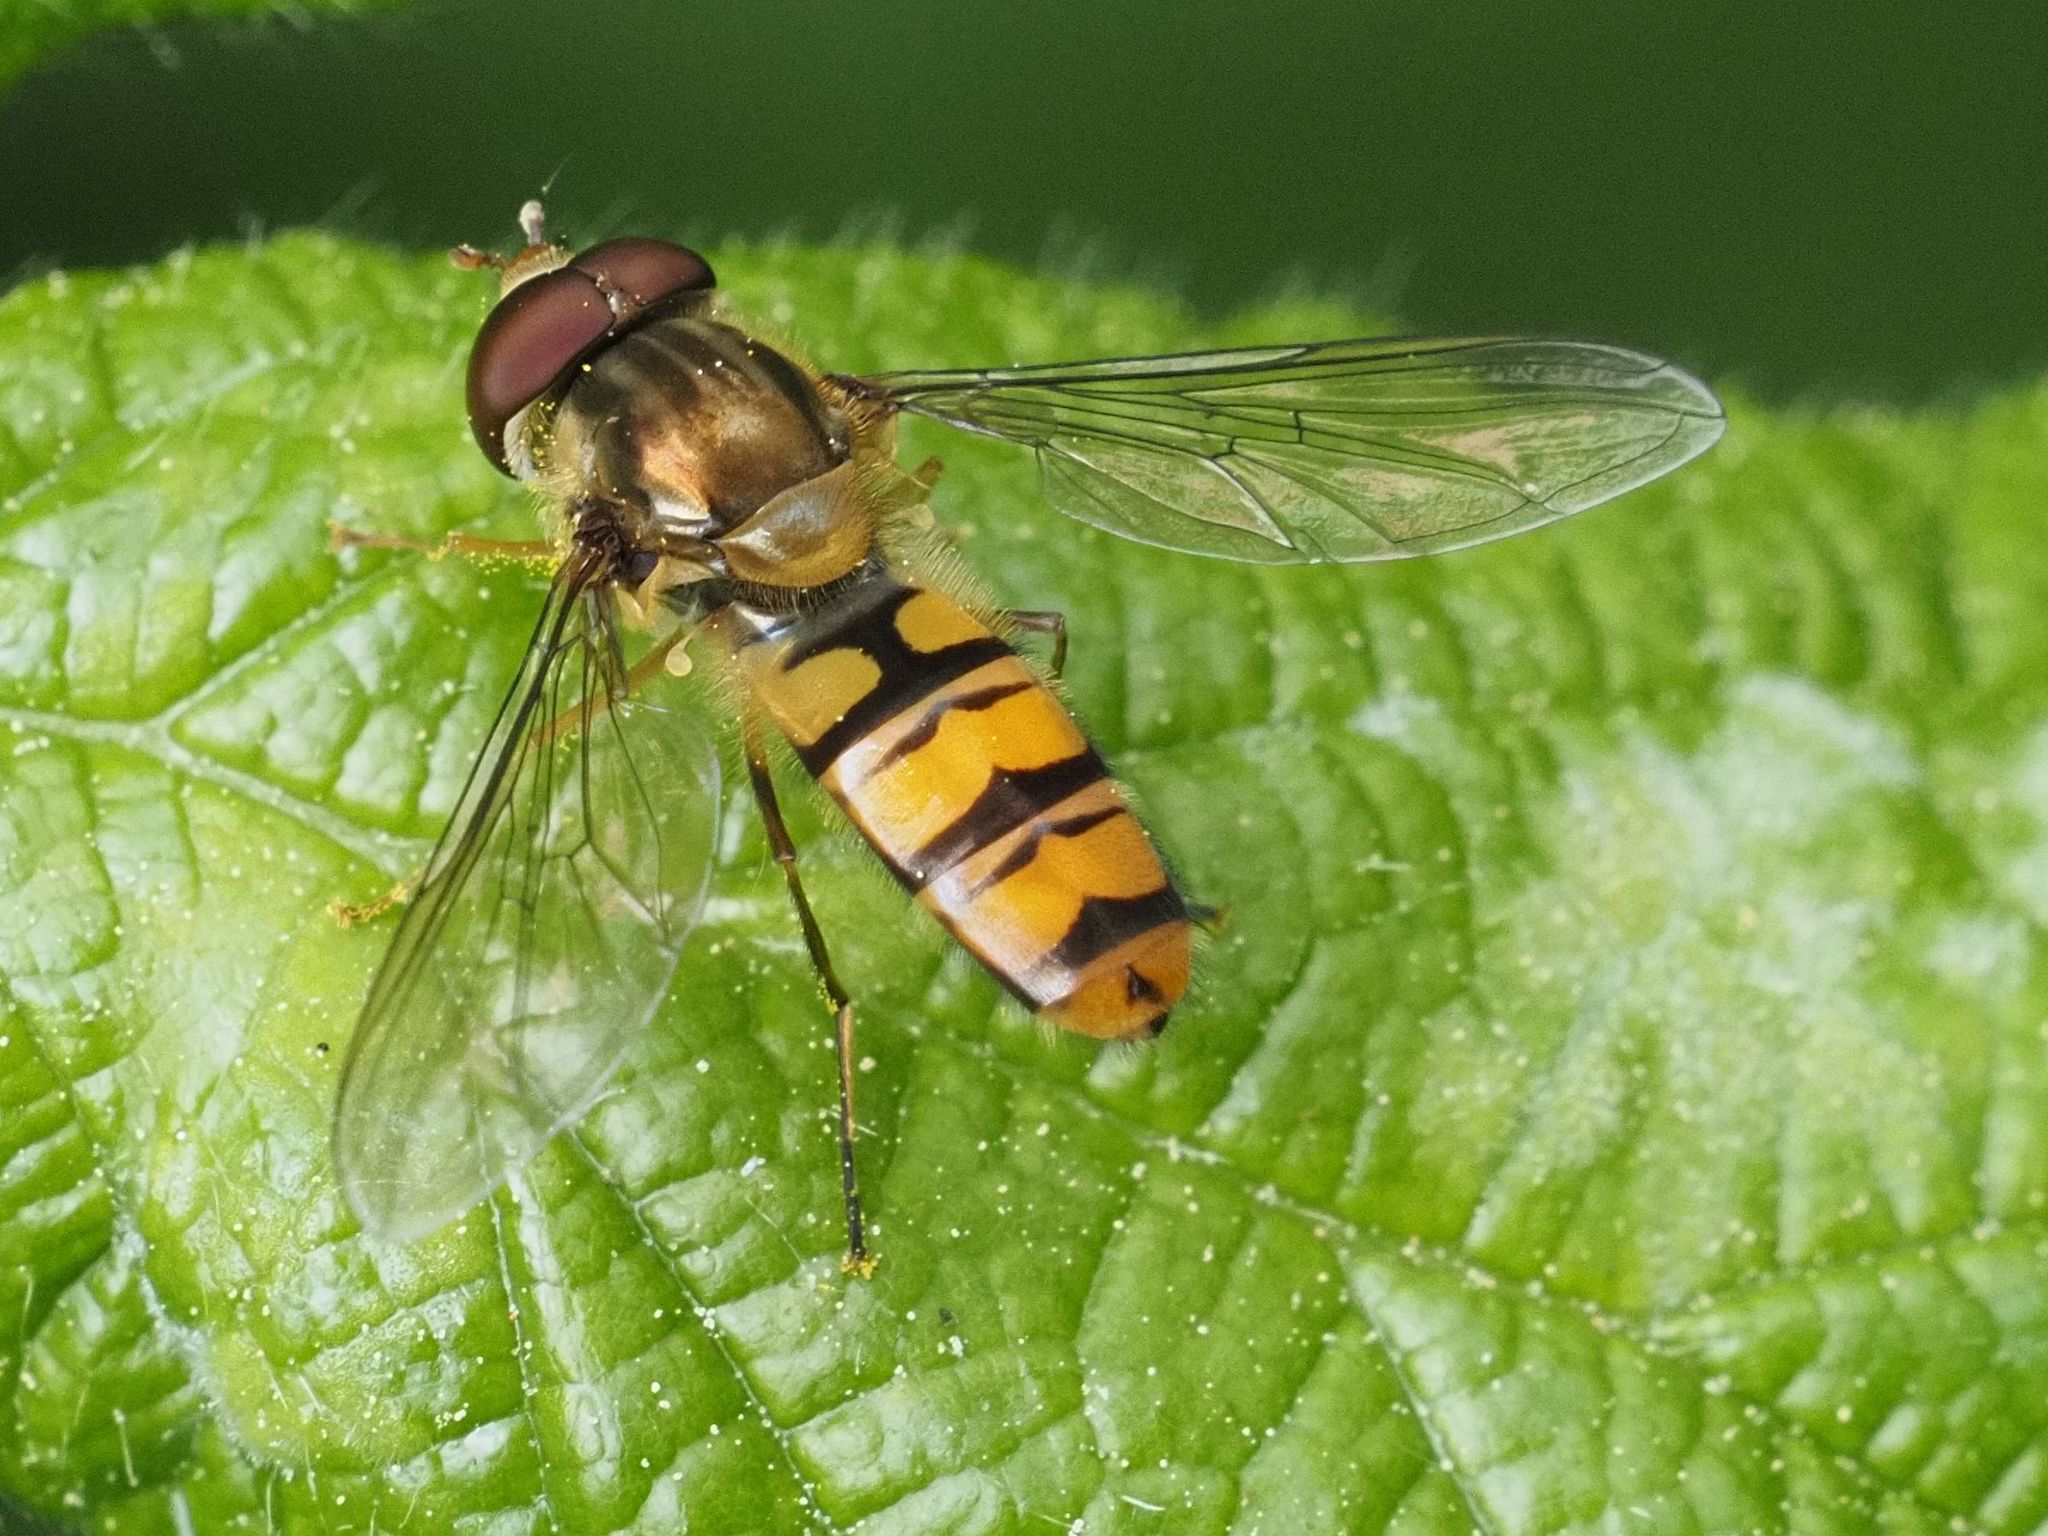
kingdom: Animalia
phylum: Arthropoda
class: Insecta
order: Diptera
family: Syrphidae
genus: Episyrphus
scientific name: Episyrphus balteatus
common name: Marmalade hoverfly
